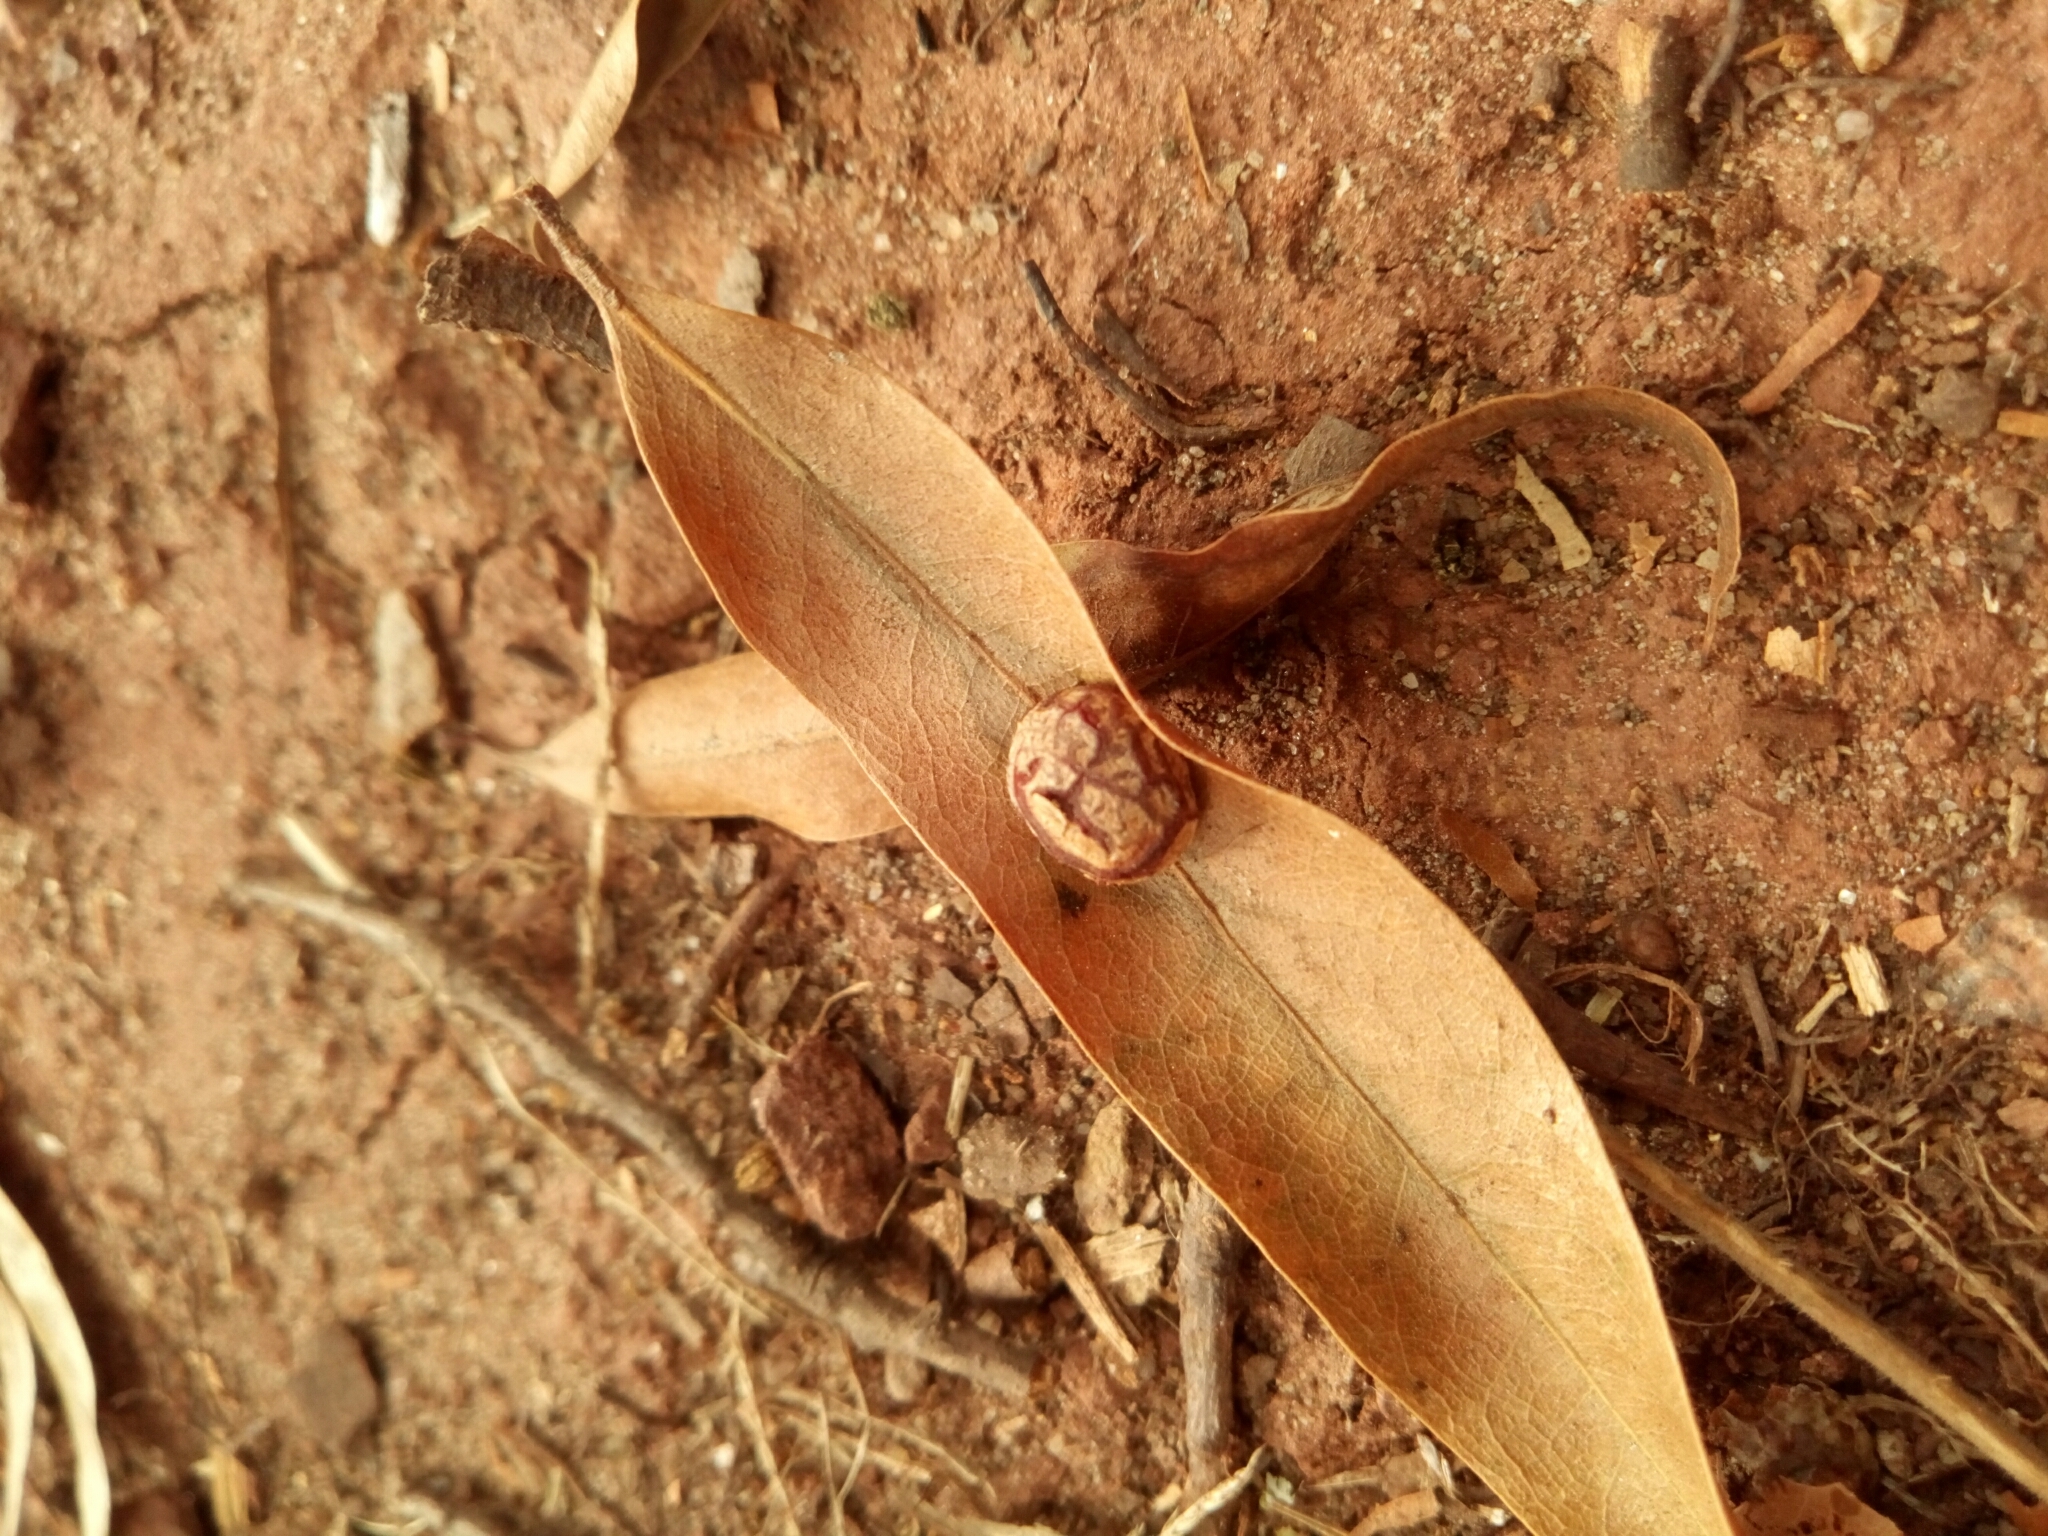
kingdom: Animalia
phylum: Arthropoda
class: Insecta
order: Diptera
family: Cecidomyiidae
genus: Polystepha
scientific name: Polystepha pilulae
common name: Oak leaf gall midge
